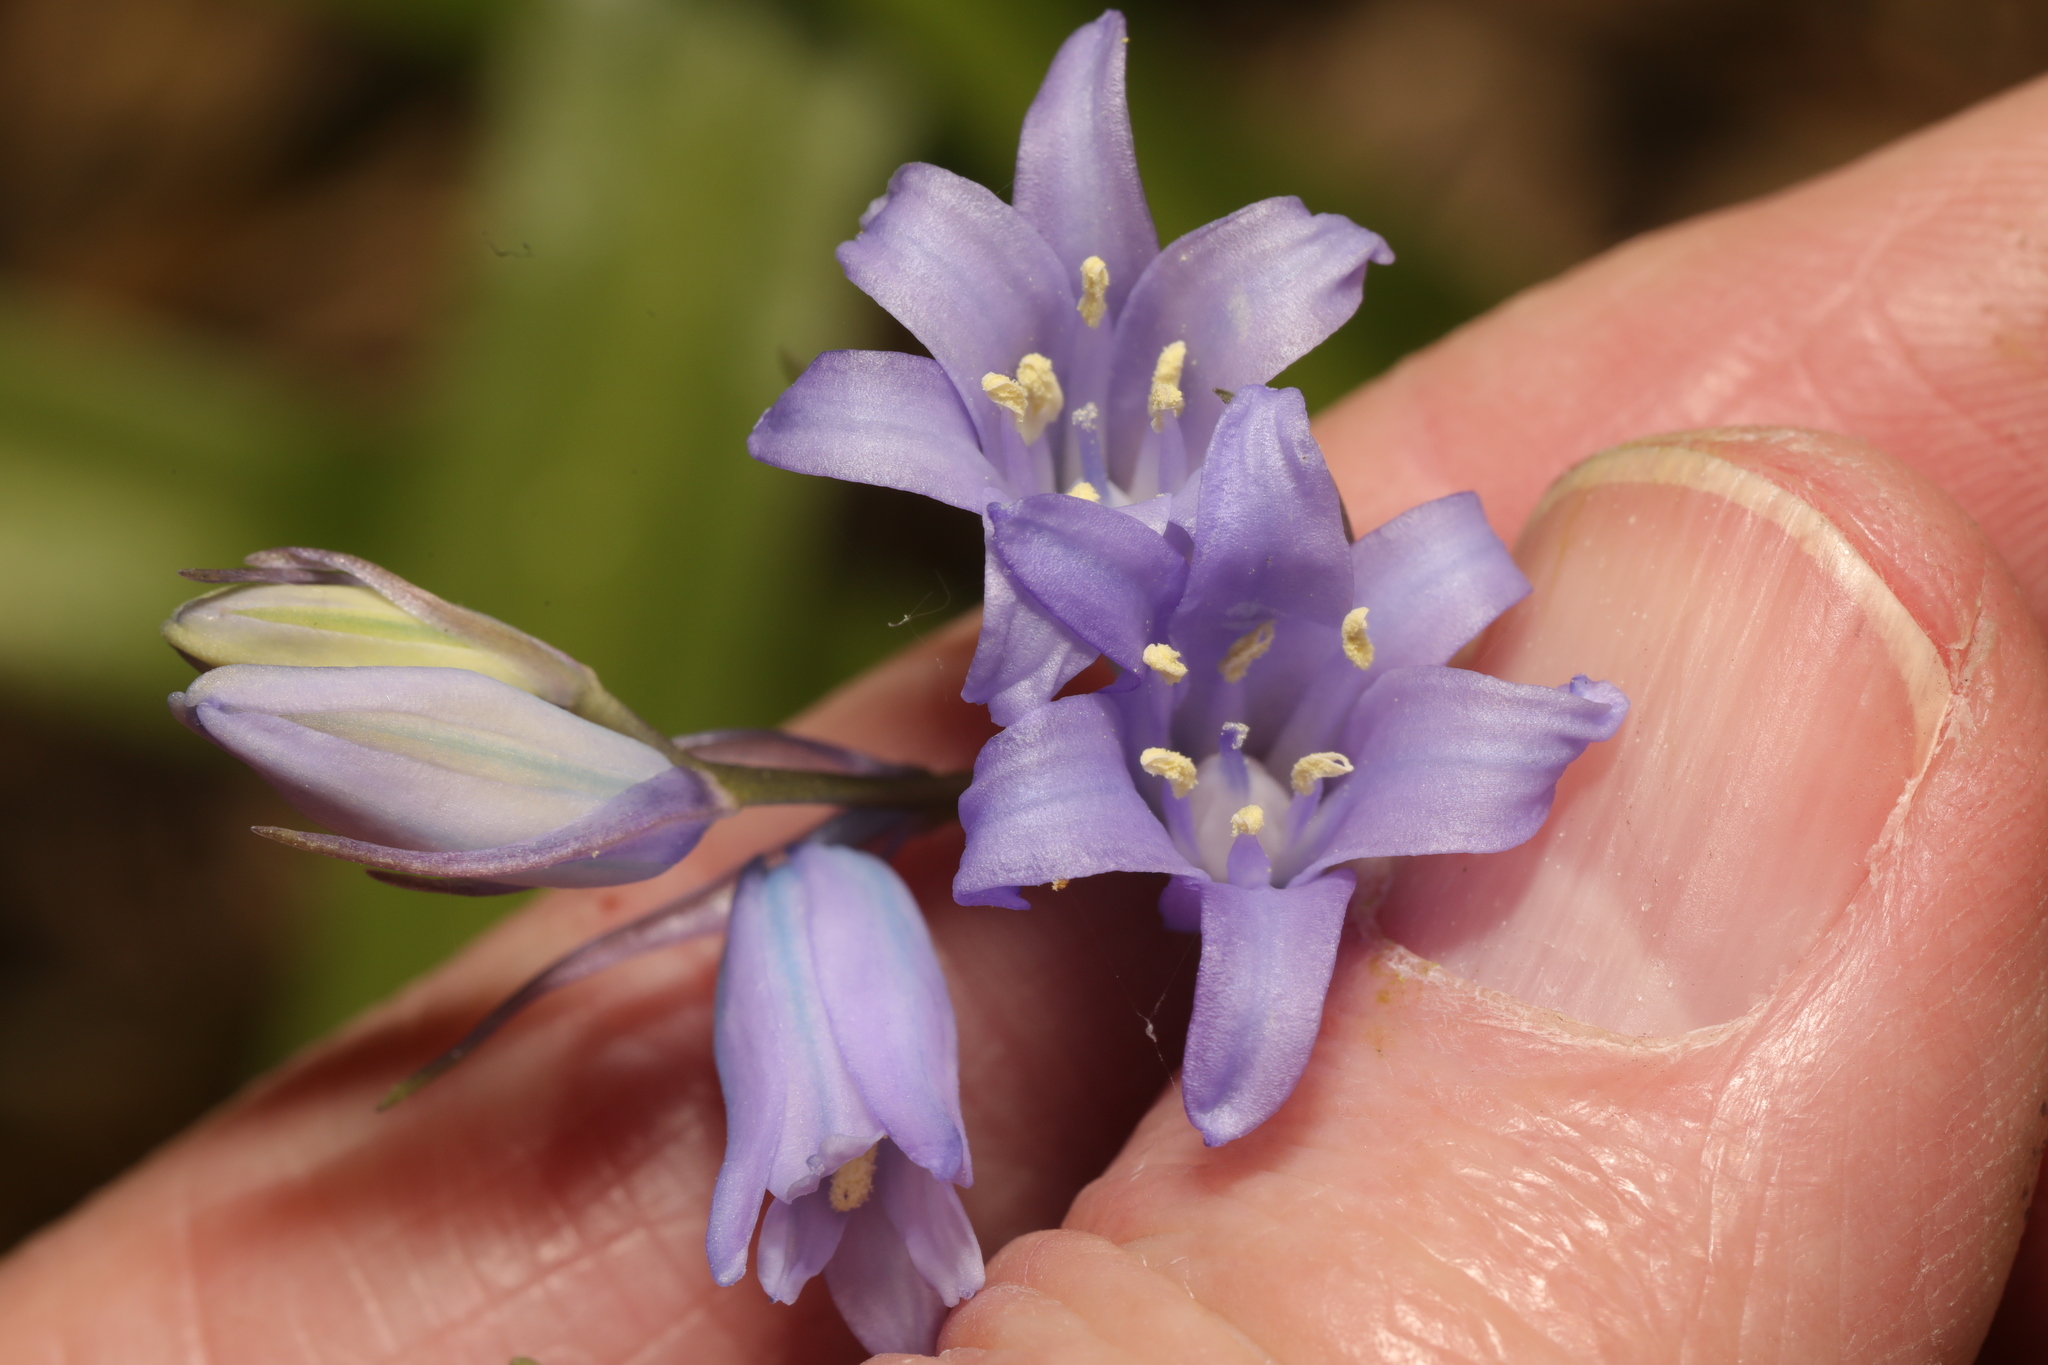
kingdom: Plantae
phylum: Tracheophyta
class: Liliopsida
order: Asparagales
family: Asparagaceae
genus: Hyacinthoides
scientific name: Hyacinthoides massartiana
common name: Hyacinthoides
